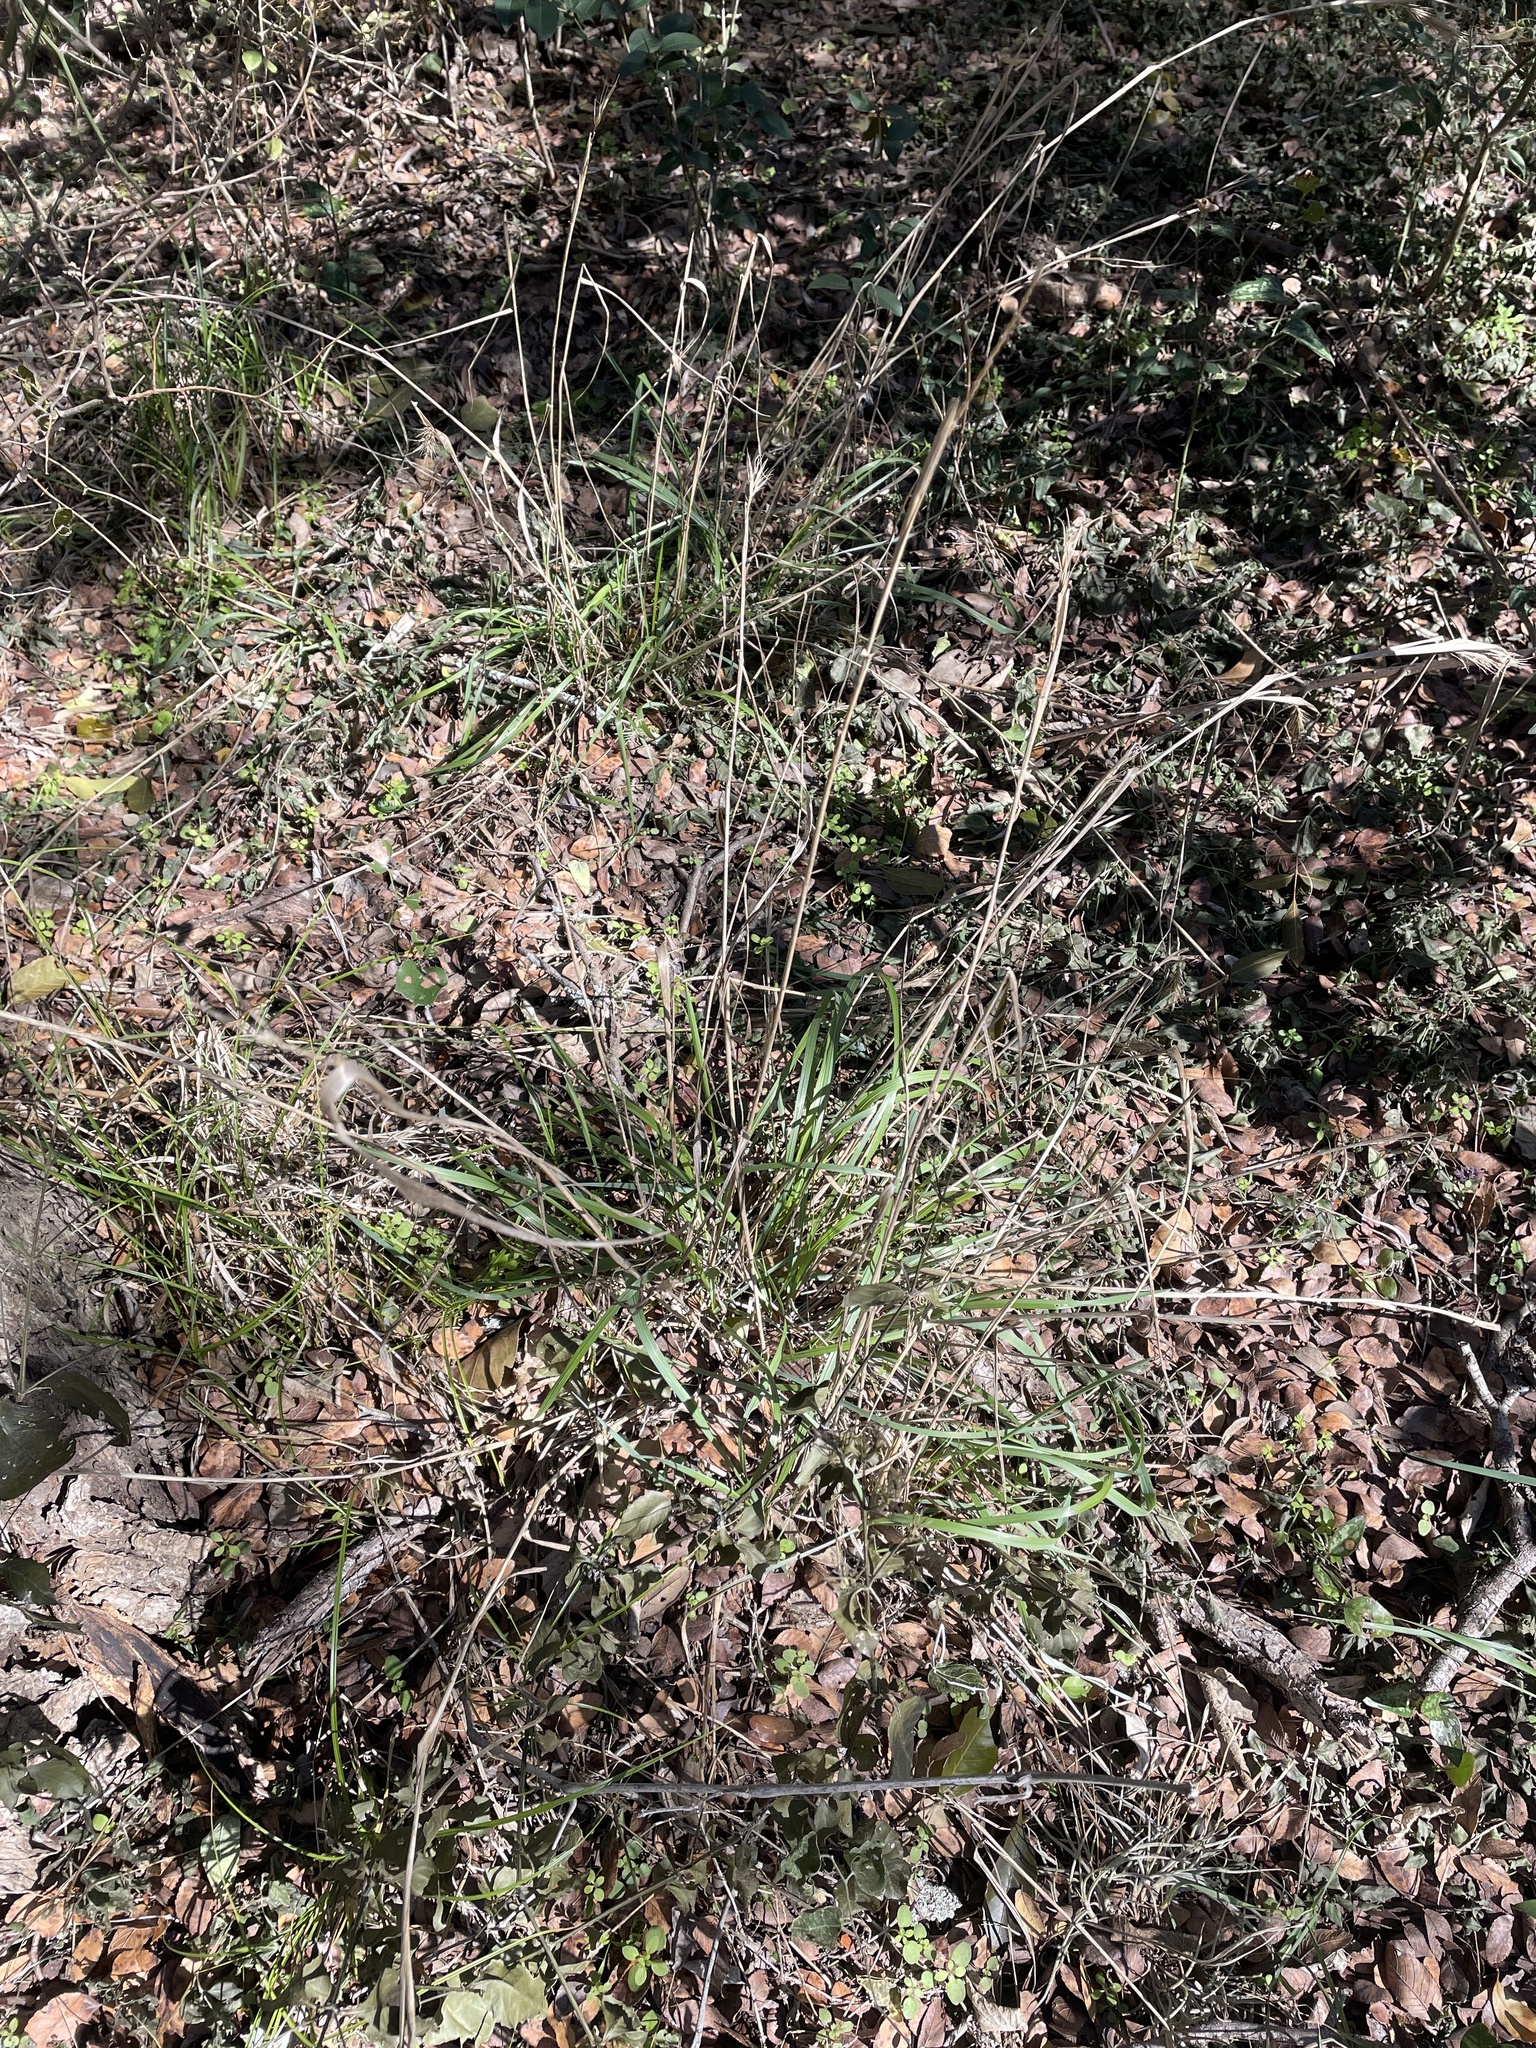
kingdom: Plantae
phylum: Tracheophyta
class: Liliopsida
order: Poales
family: Poaceae
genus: Elymus
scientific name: Elymus virginicus
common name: Common eastern wildrye
